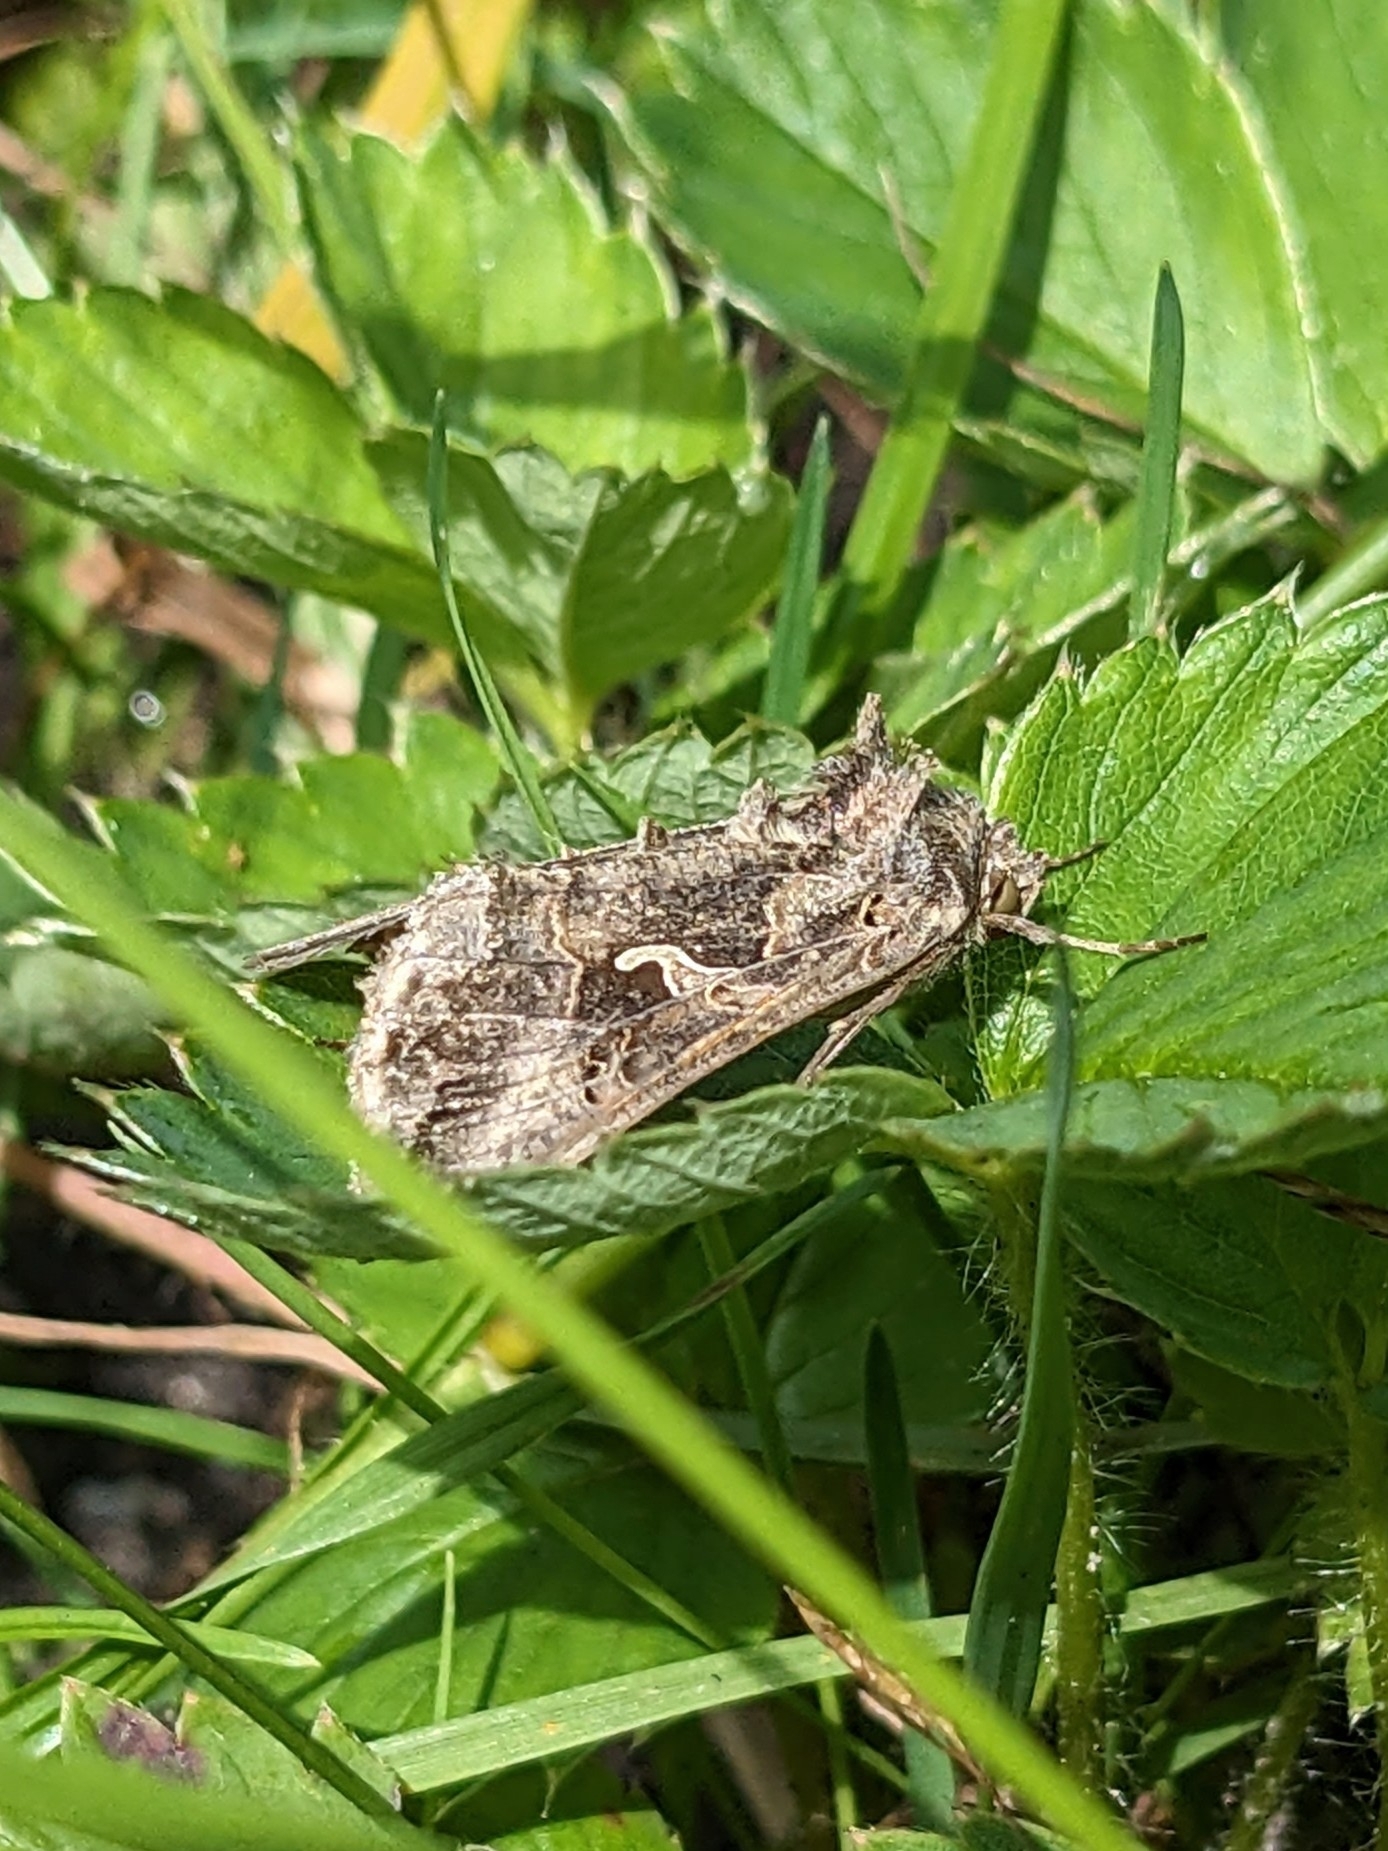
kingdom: Animalia
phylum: Arthropoda
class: Insecta
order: Lepidoptera
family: Noctuidae
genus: Autographa
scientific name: Autographa gamma
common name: Silver y
